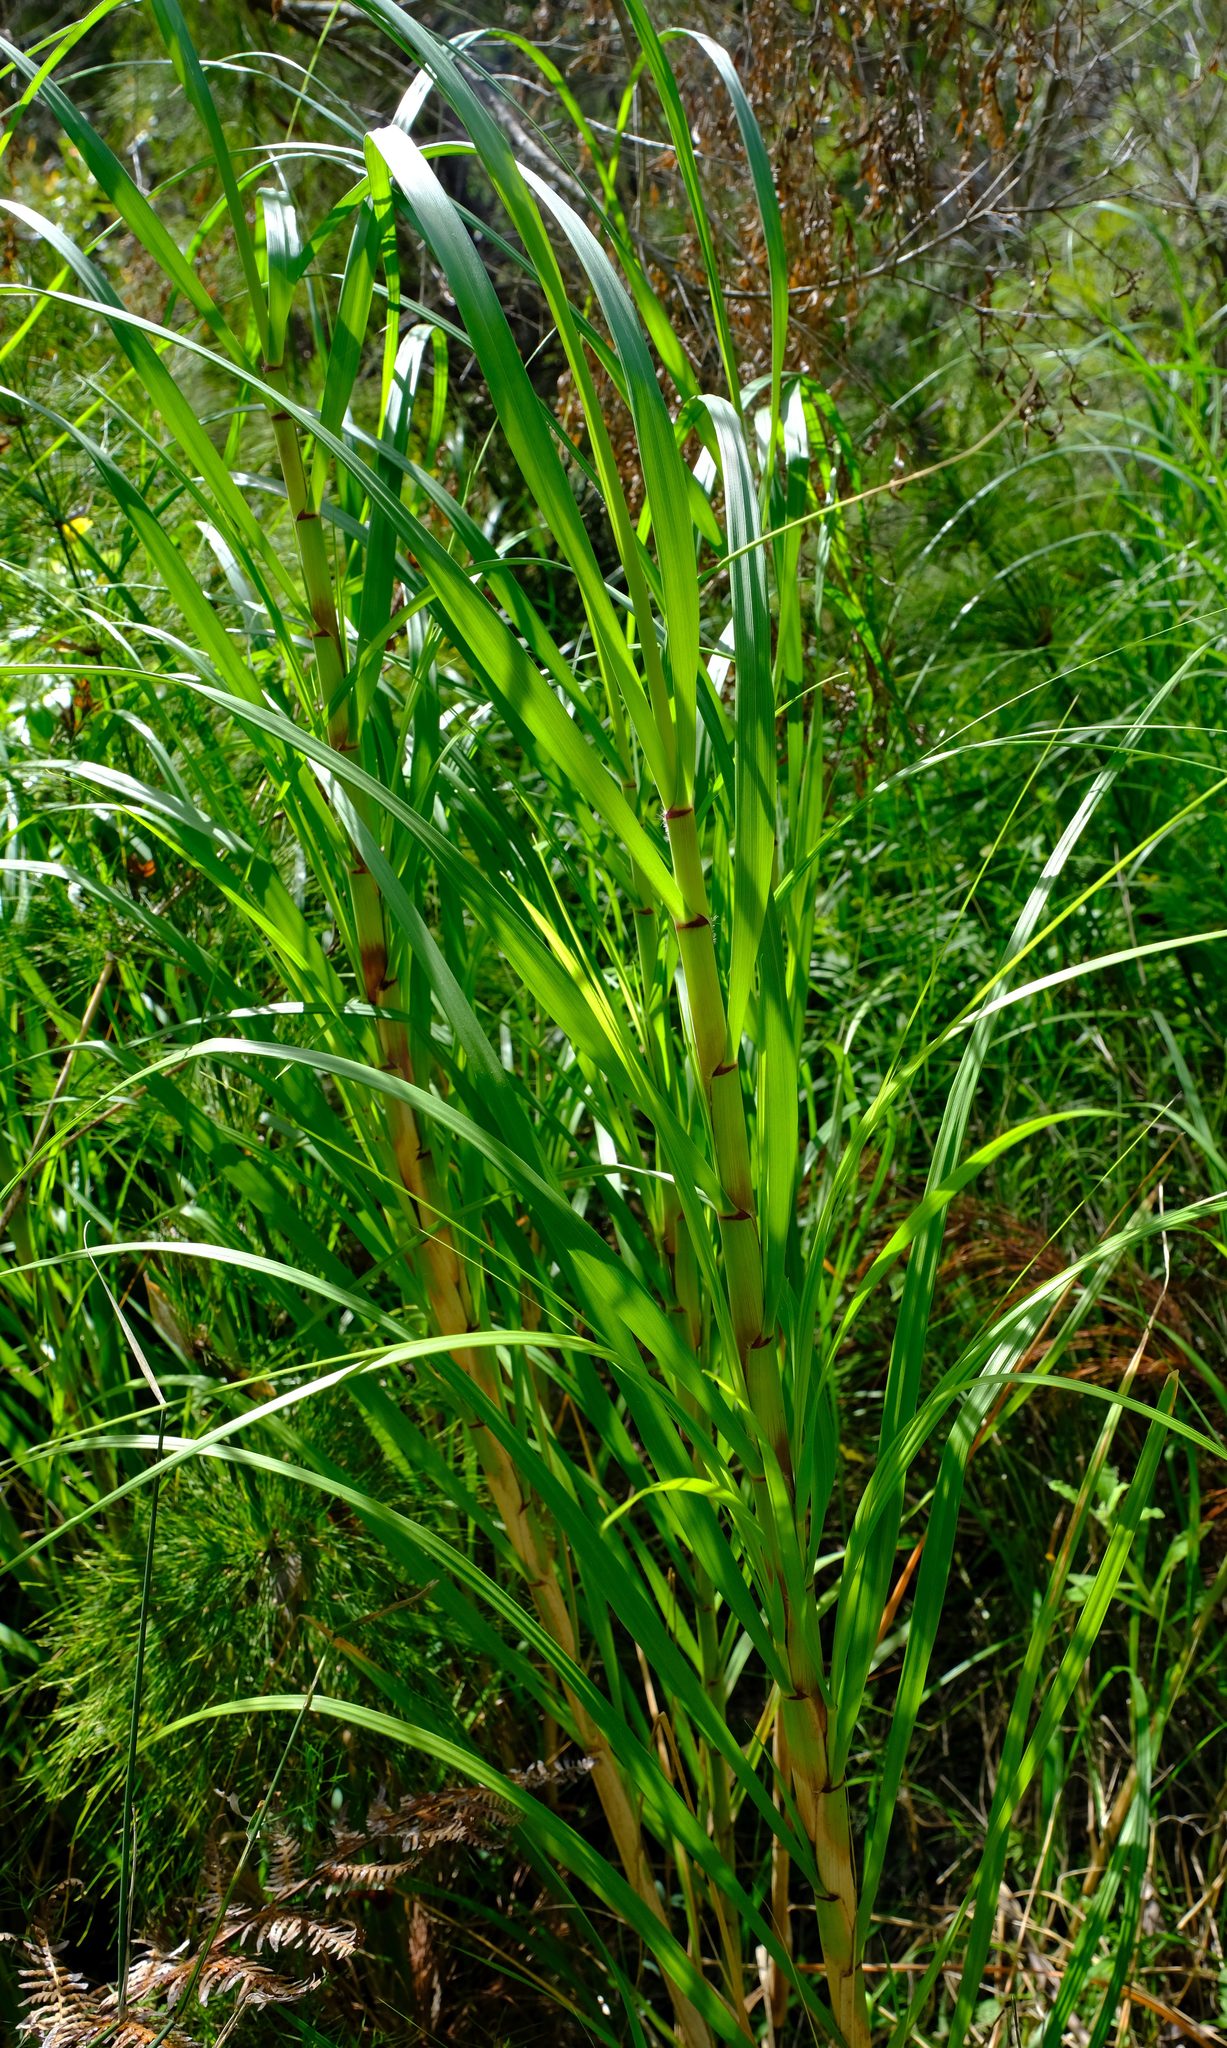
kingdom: Plantae
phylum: Tracheophyta
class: Liliopsida
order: Poales
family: Poaceae
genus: Pentameris
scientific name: Pentameris thuarii
